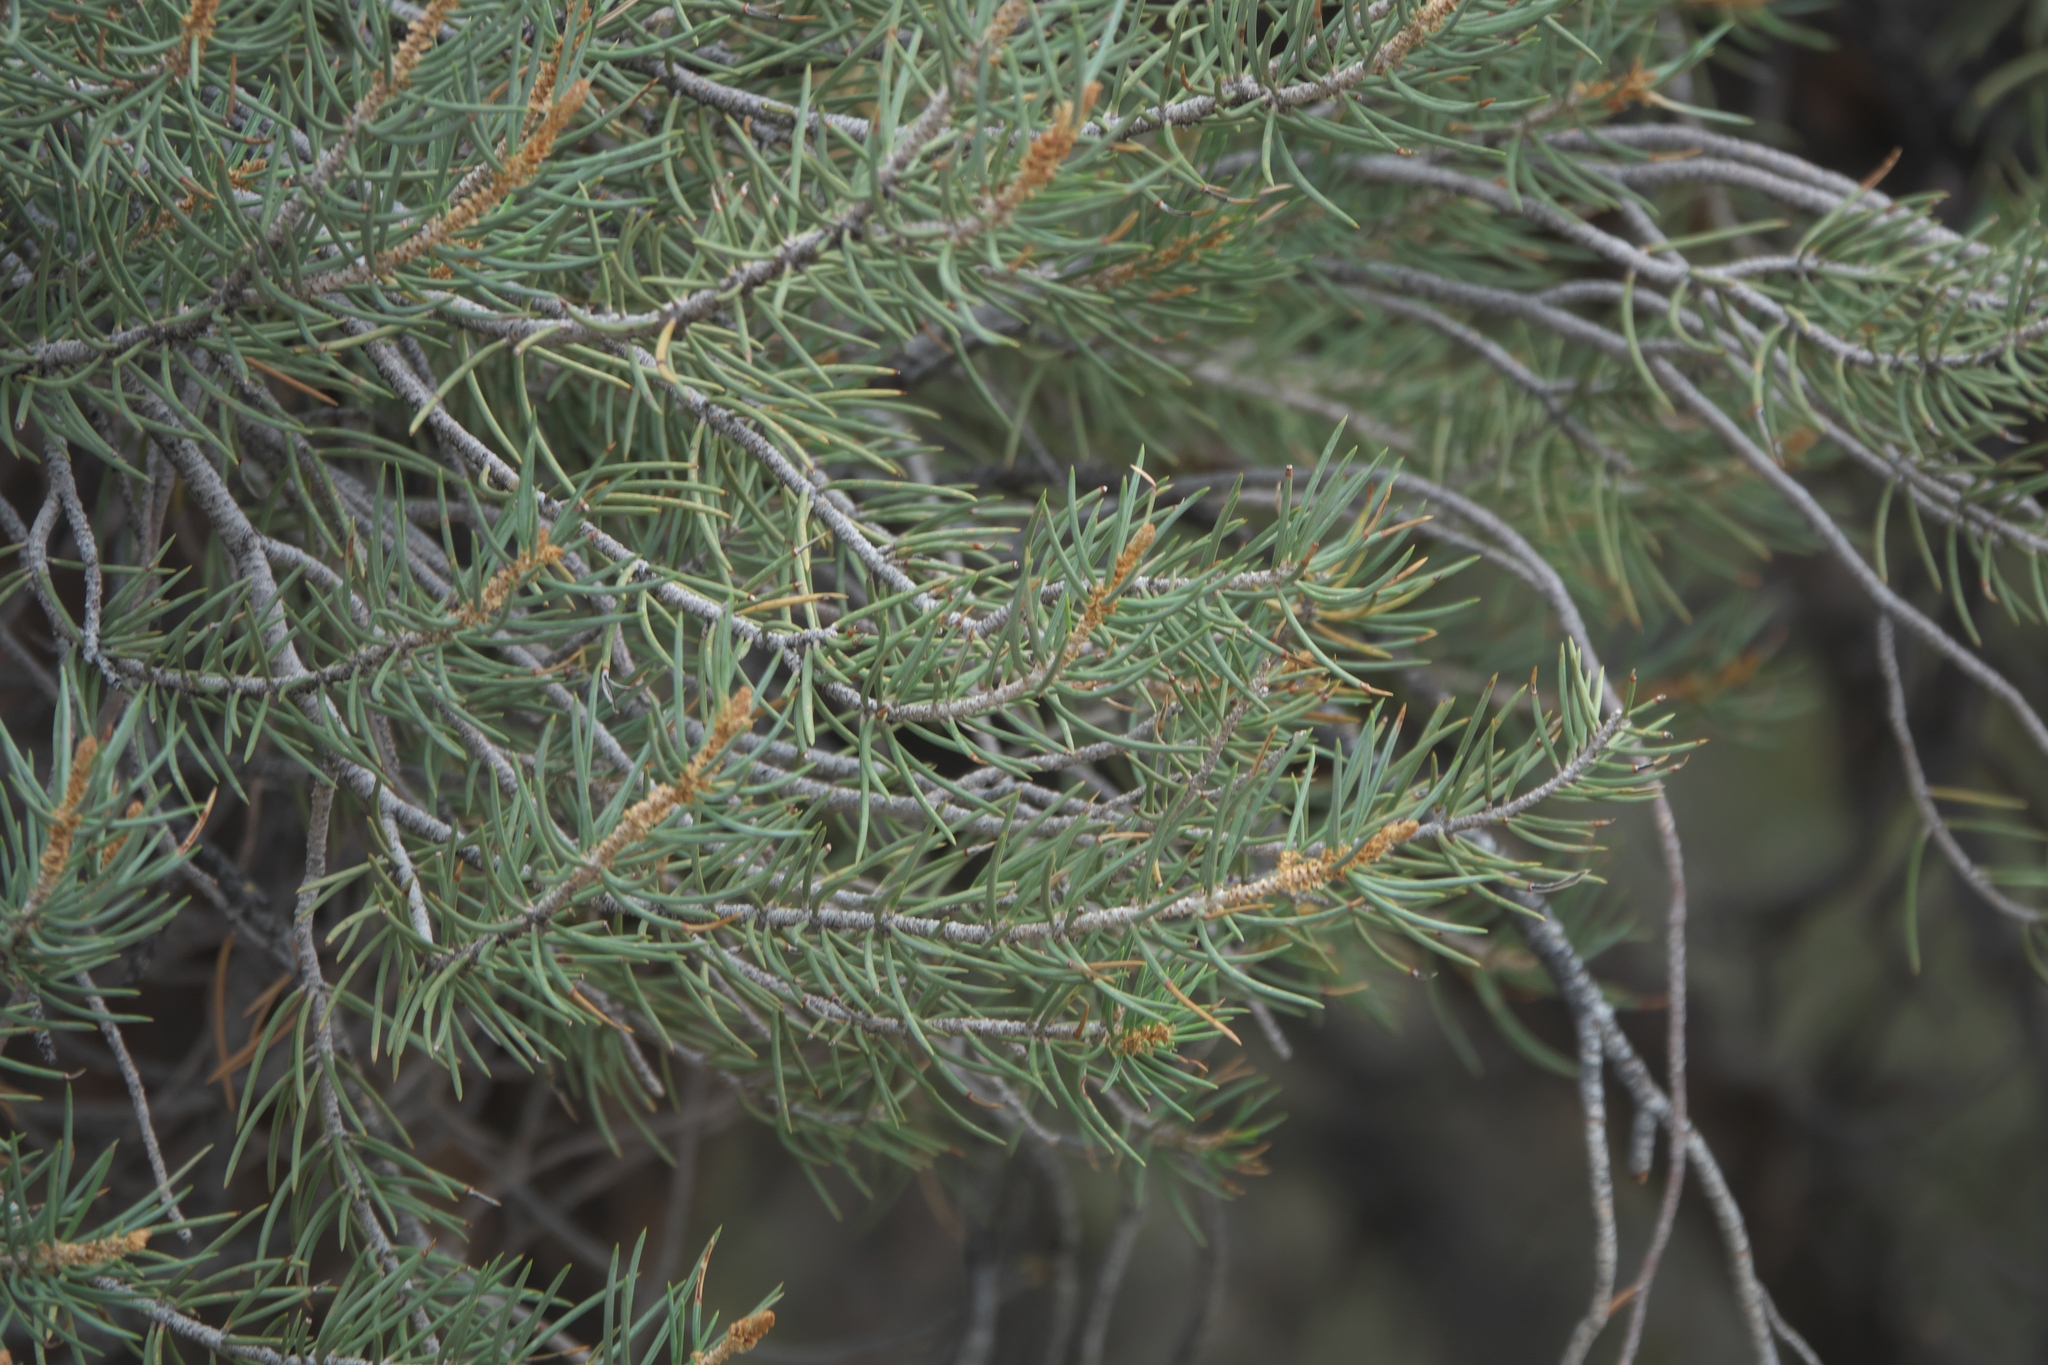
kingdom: Plantae
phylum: Tracheophyta
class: Pinopsida
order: Pinales
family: Pinaceae
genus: Pinus
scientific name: Pinus monophylla
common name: One-leaved nut pine
